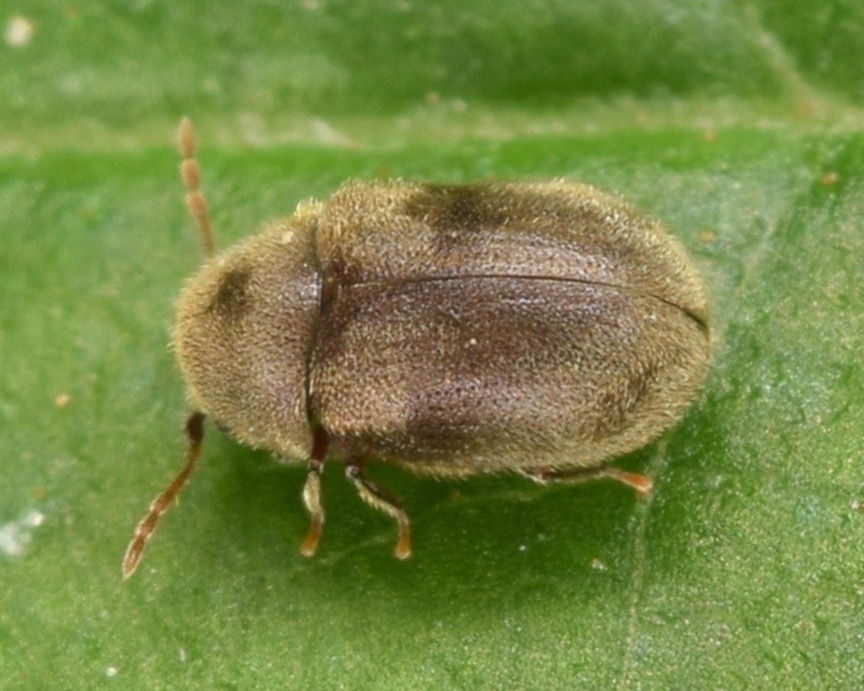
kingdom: Animalia
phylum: Arthropoda
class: Insecta
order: Coleoptera
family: Anobiidae
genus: Protheca
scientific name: Protheca hispida
